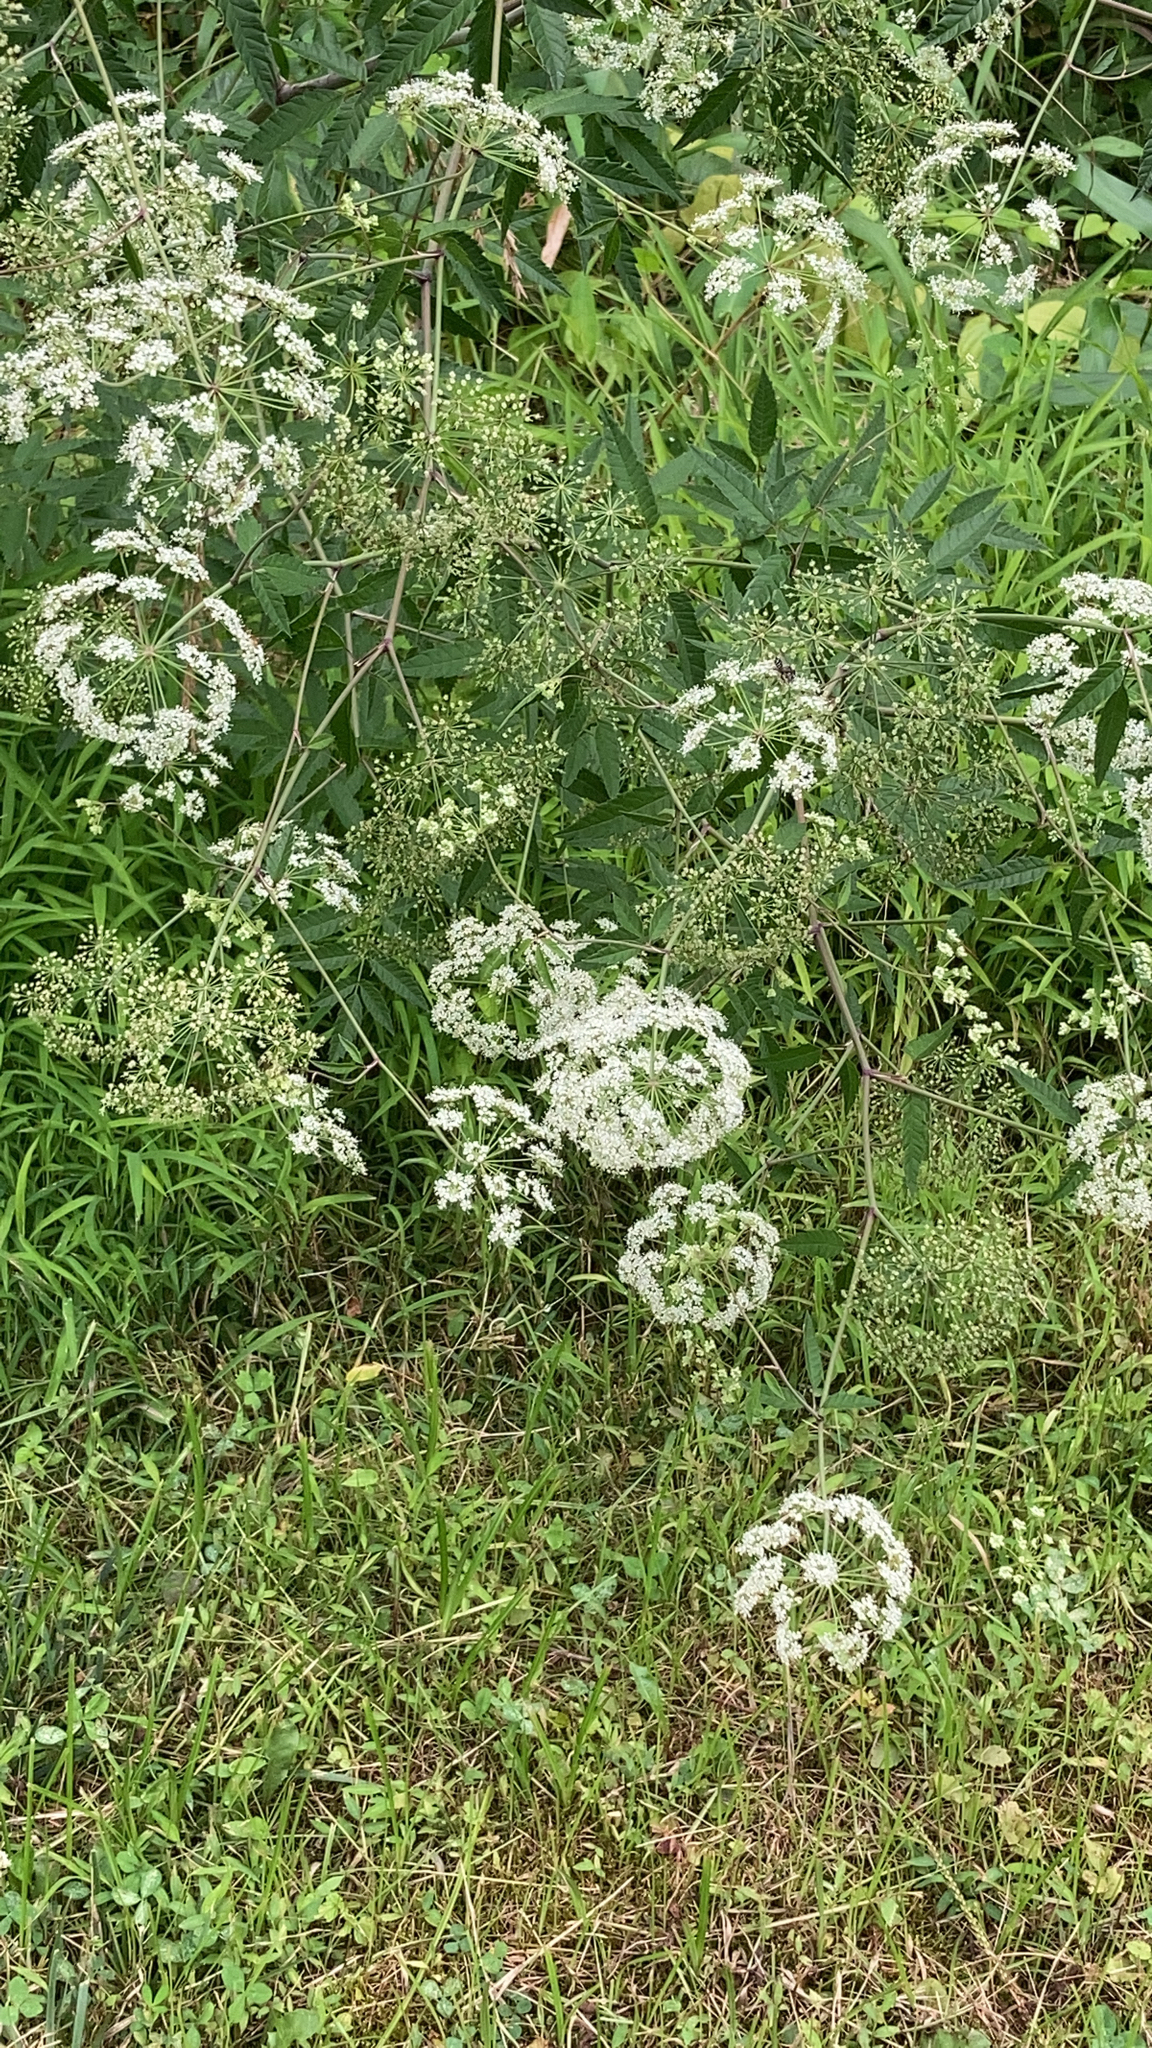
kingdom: Plantae
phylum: Tracheophyta
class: Magnoliopsida
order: Apiales
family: Apiaceae
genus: Cicuta
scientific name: Cicuta maculata
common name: Spotted cowbane
